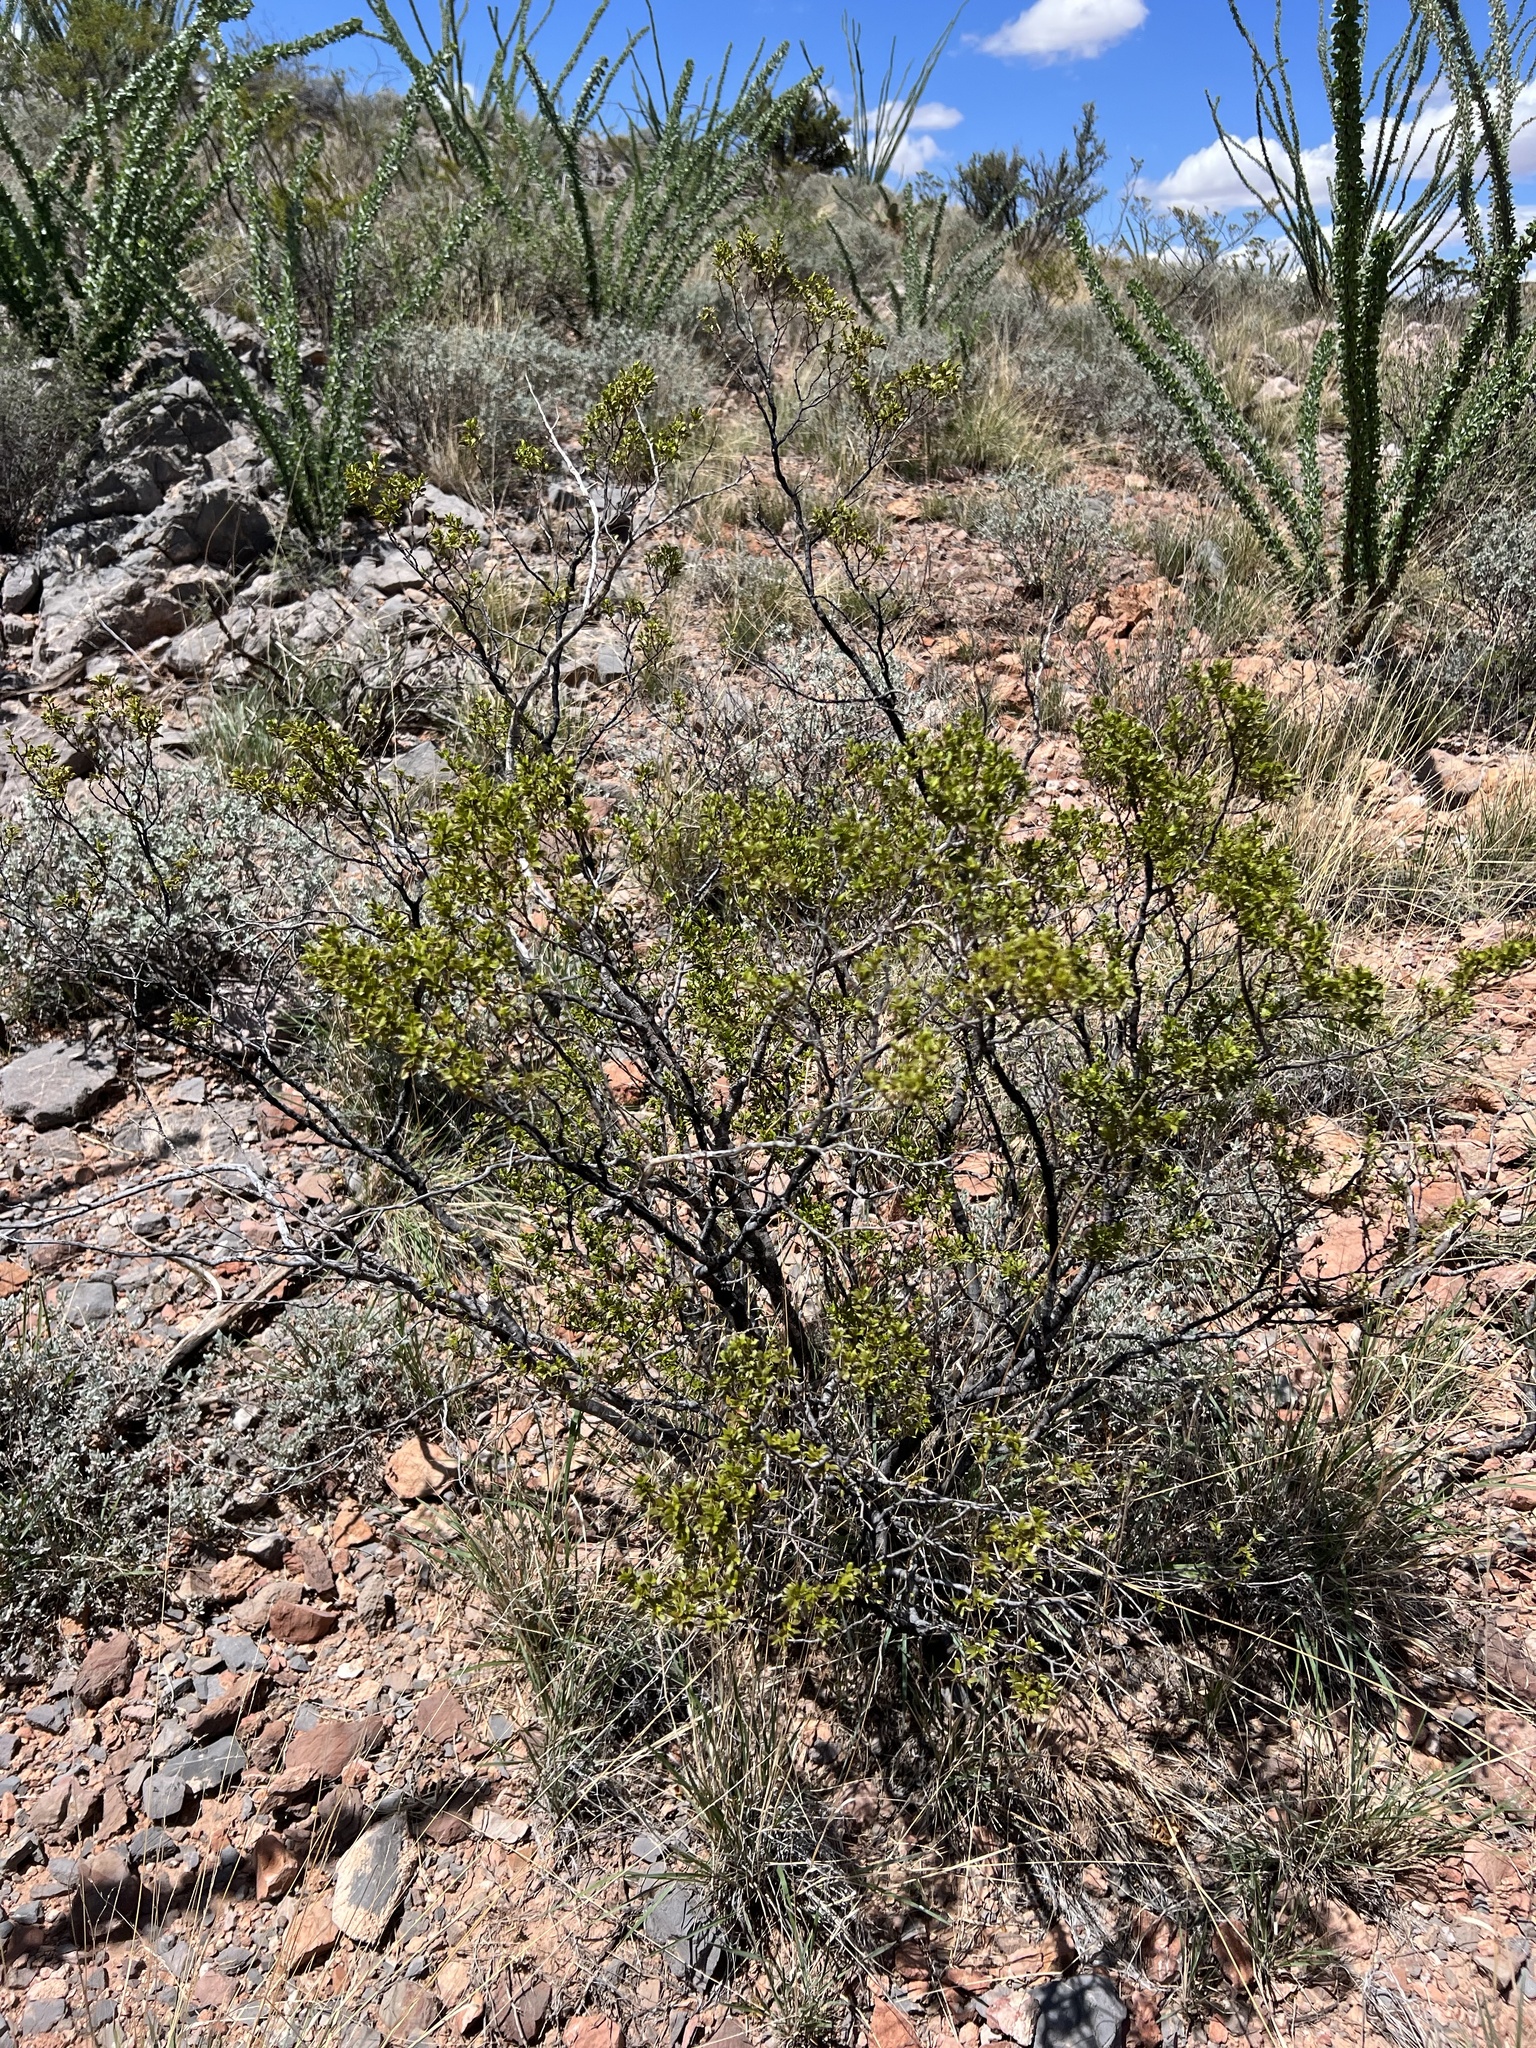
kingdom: Plantae
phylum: Tracheophyta
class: Magnoliopsida
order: Zygophyllales
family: Zygophyllaceae
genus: Larrea
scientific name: Larrea tridentata
